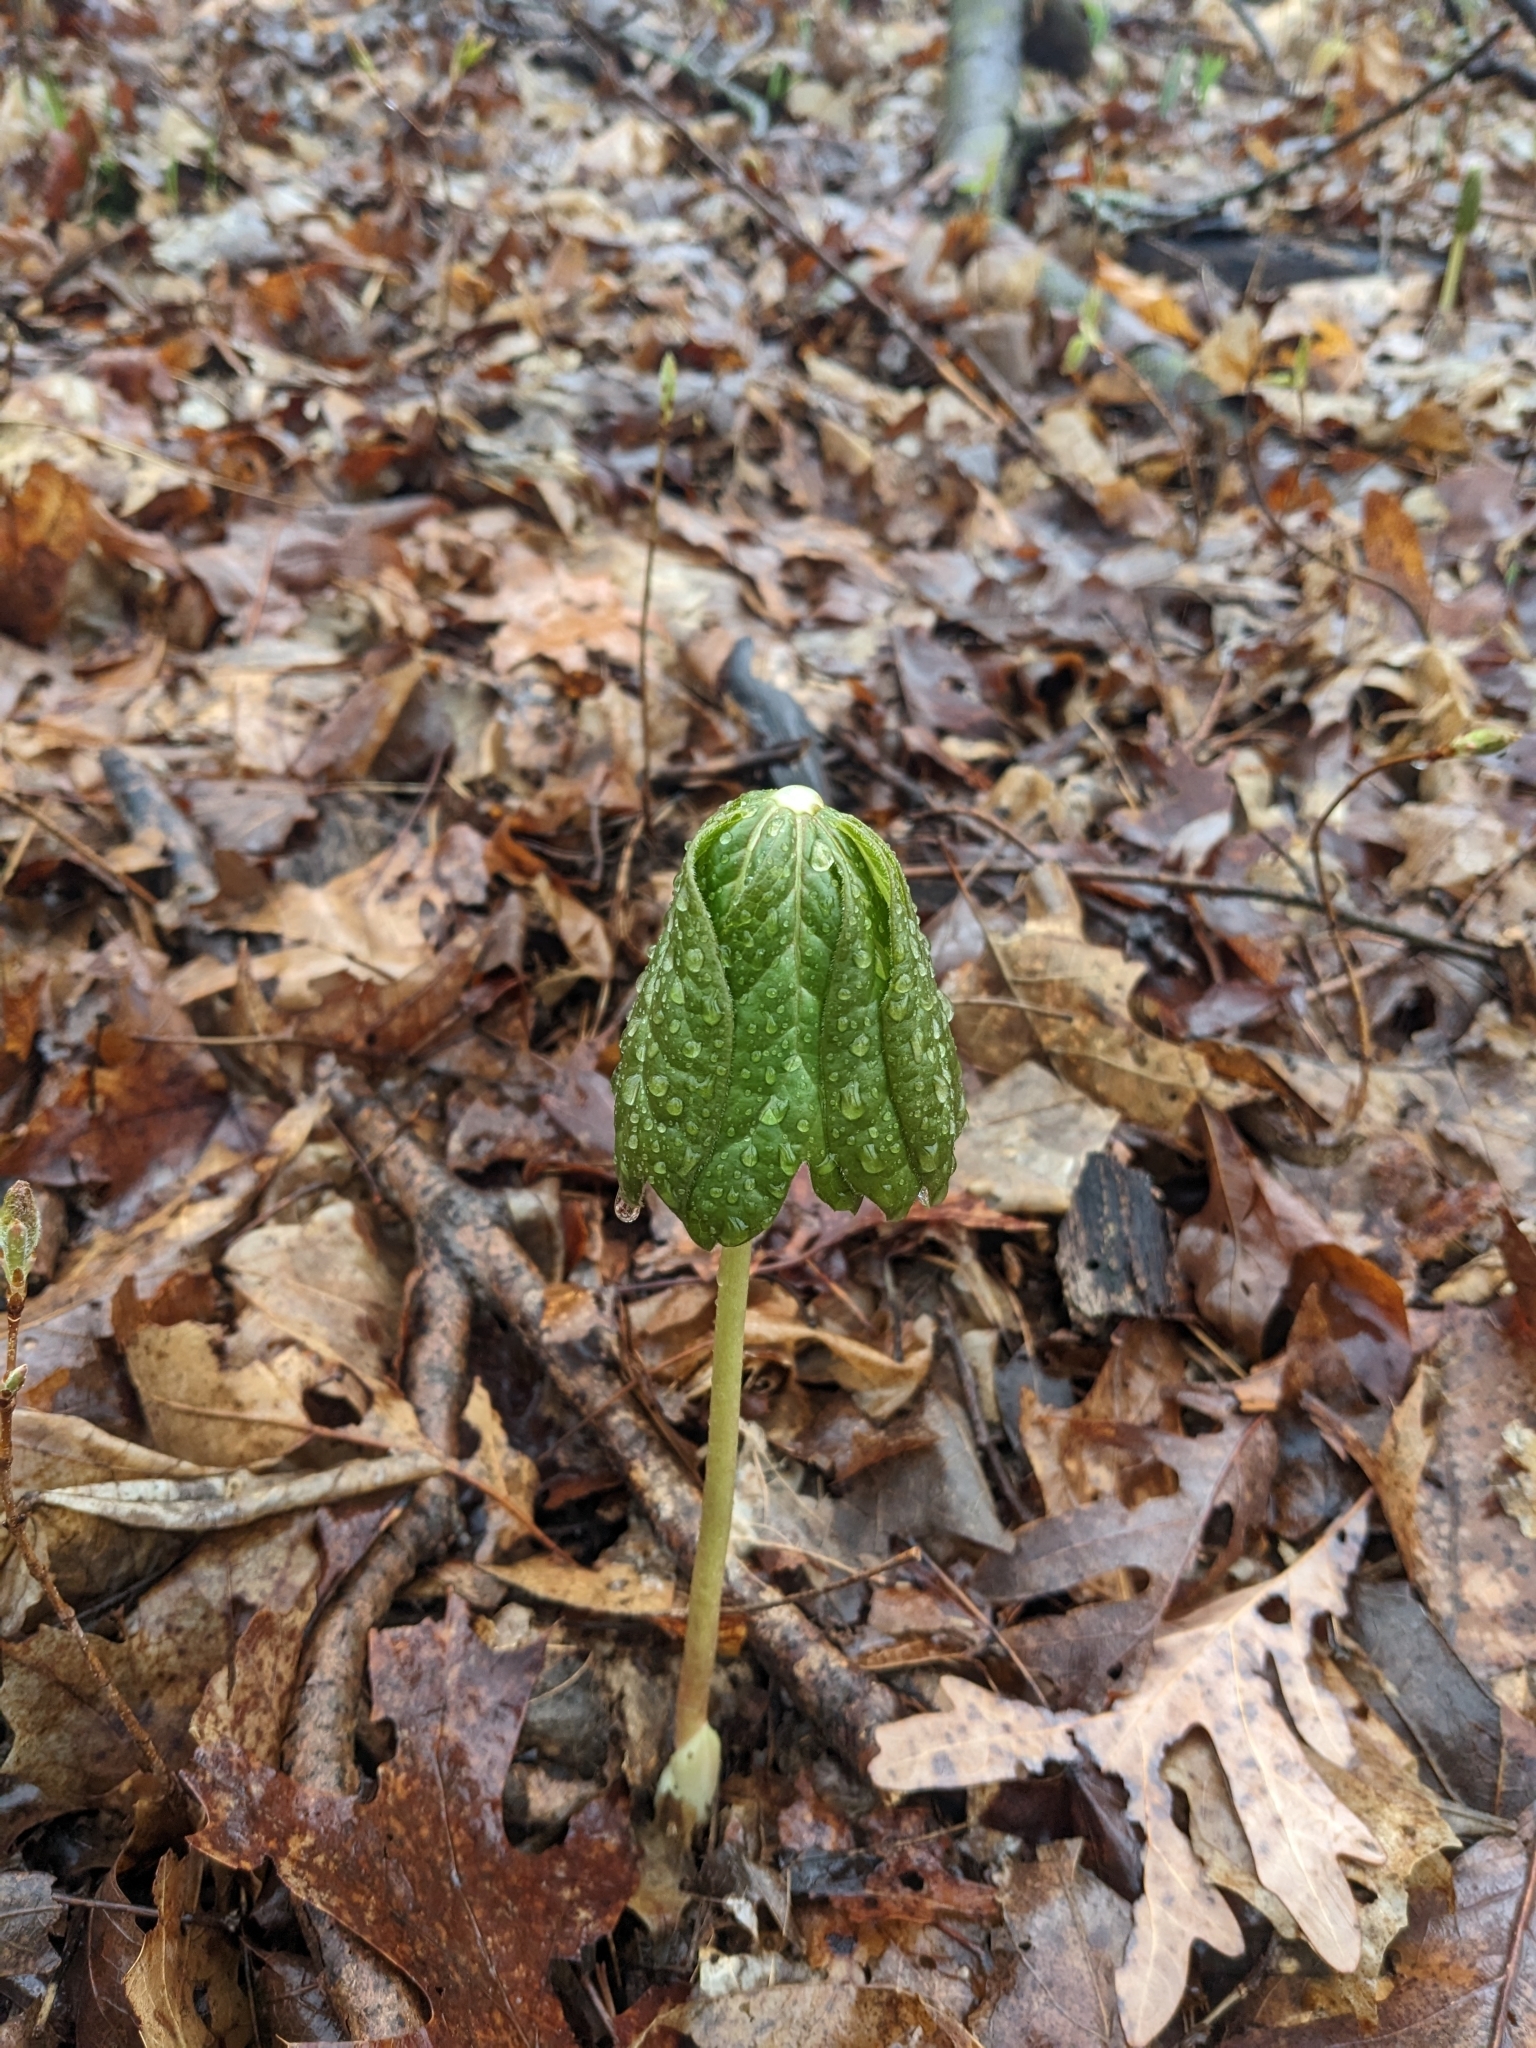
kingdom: Plantae
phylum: Tracheophyta
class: Magnoliopsida
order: Ranunculales
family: Berberidaceae
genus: Podophyllum
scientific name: Podophyllum peltatum
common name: Wild mandrake
